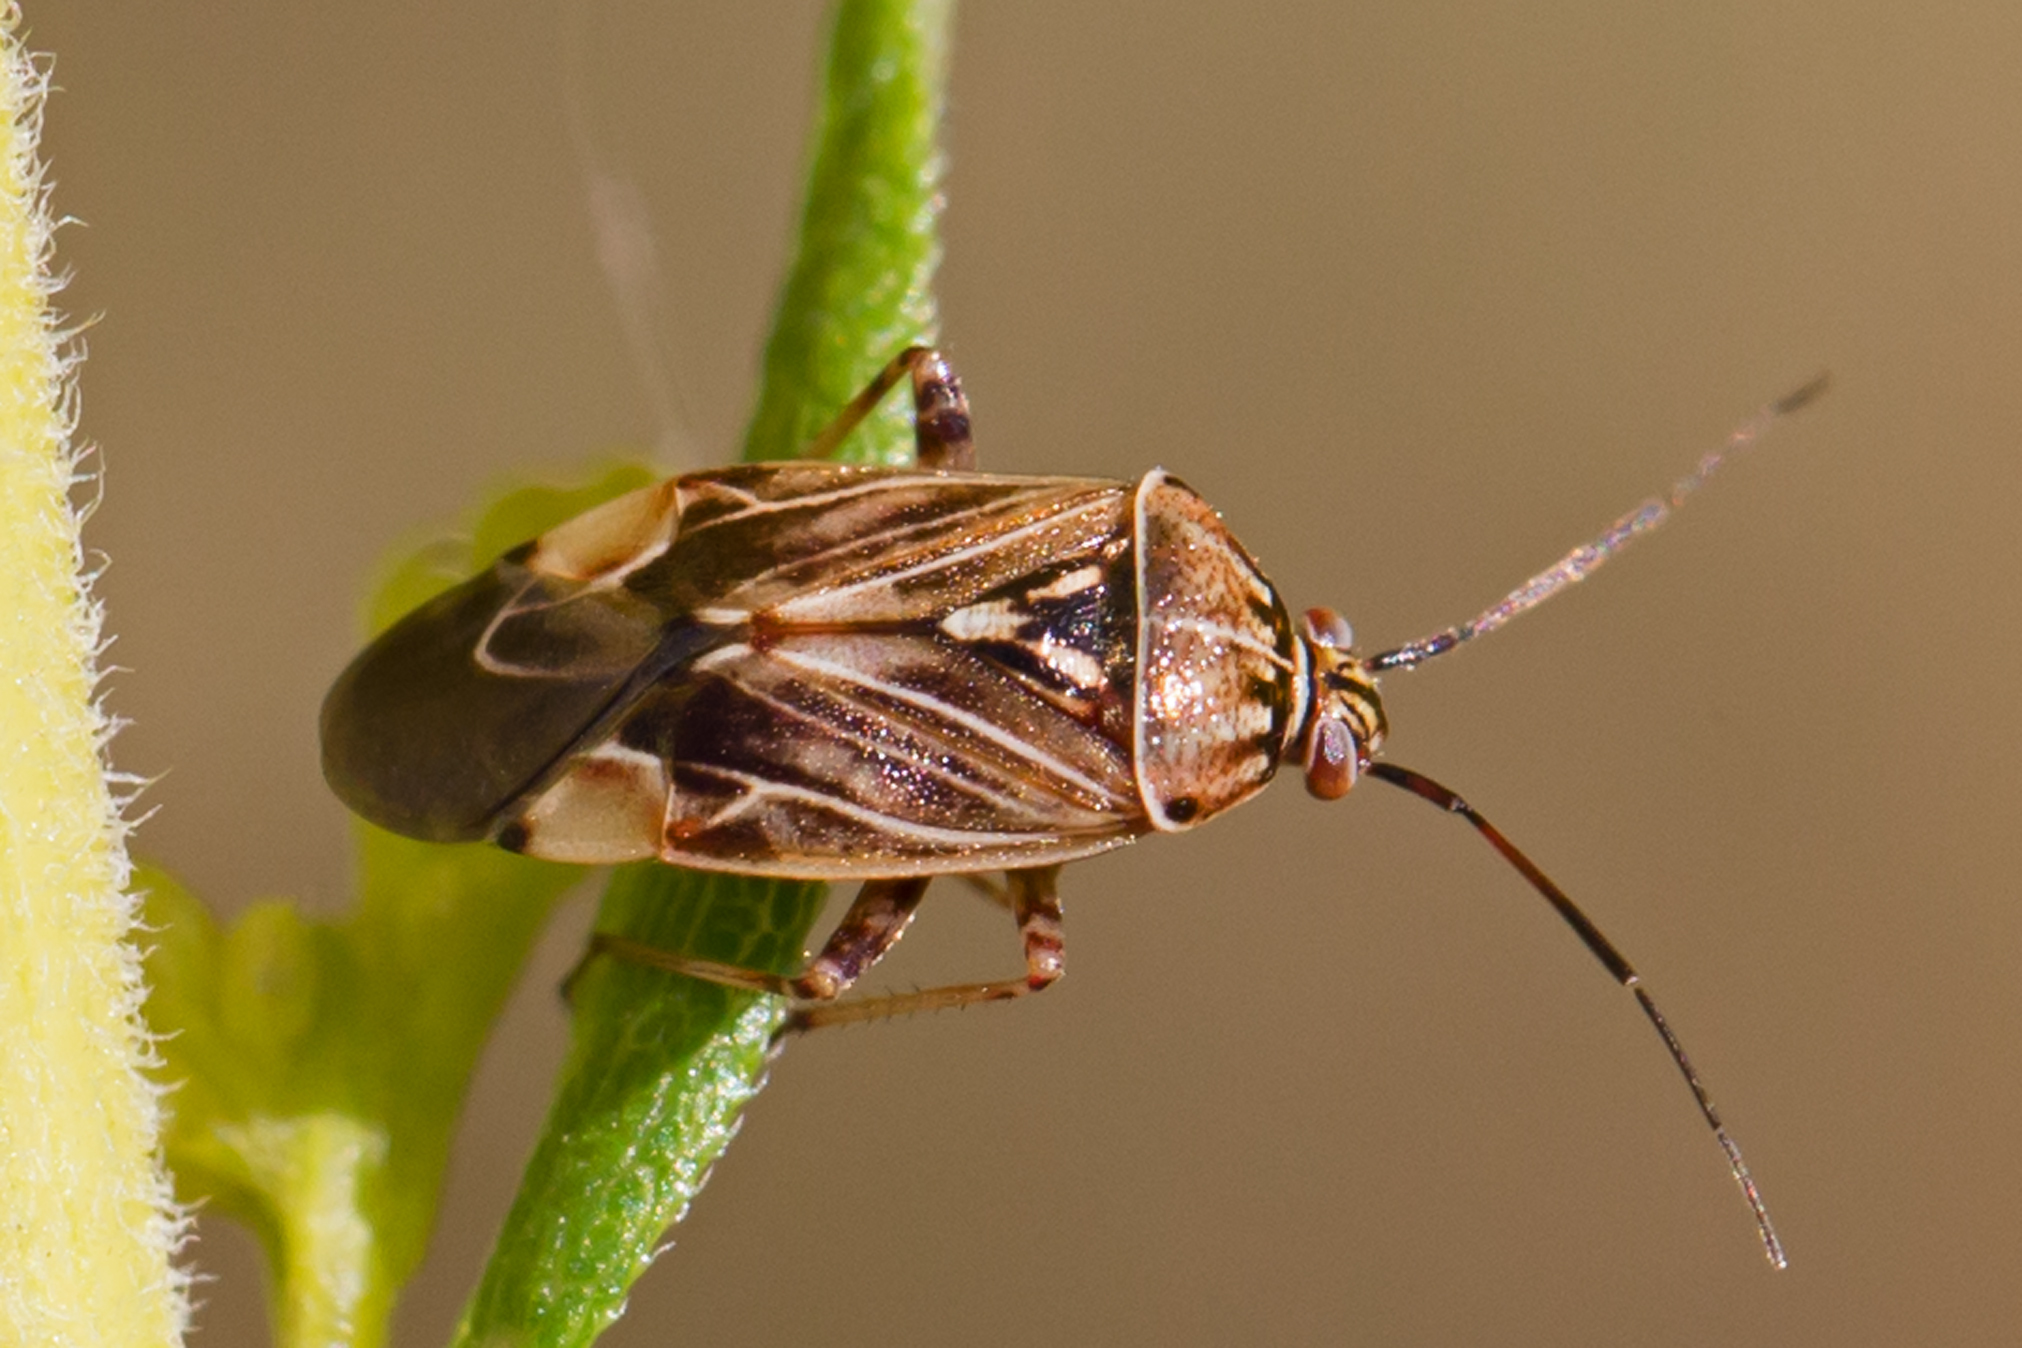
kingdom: Animalia
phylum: Arthropoda
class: Insecta
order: Hemiptera
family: Miridae
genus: Lygus
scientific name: Lygus lineolaris
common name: North american tarnished plant bug
